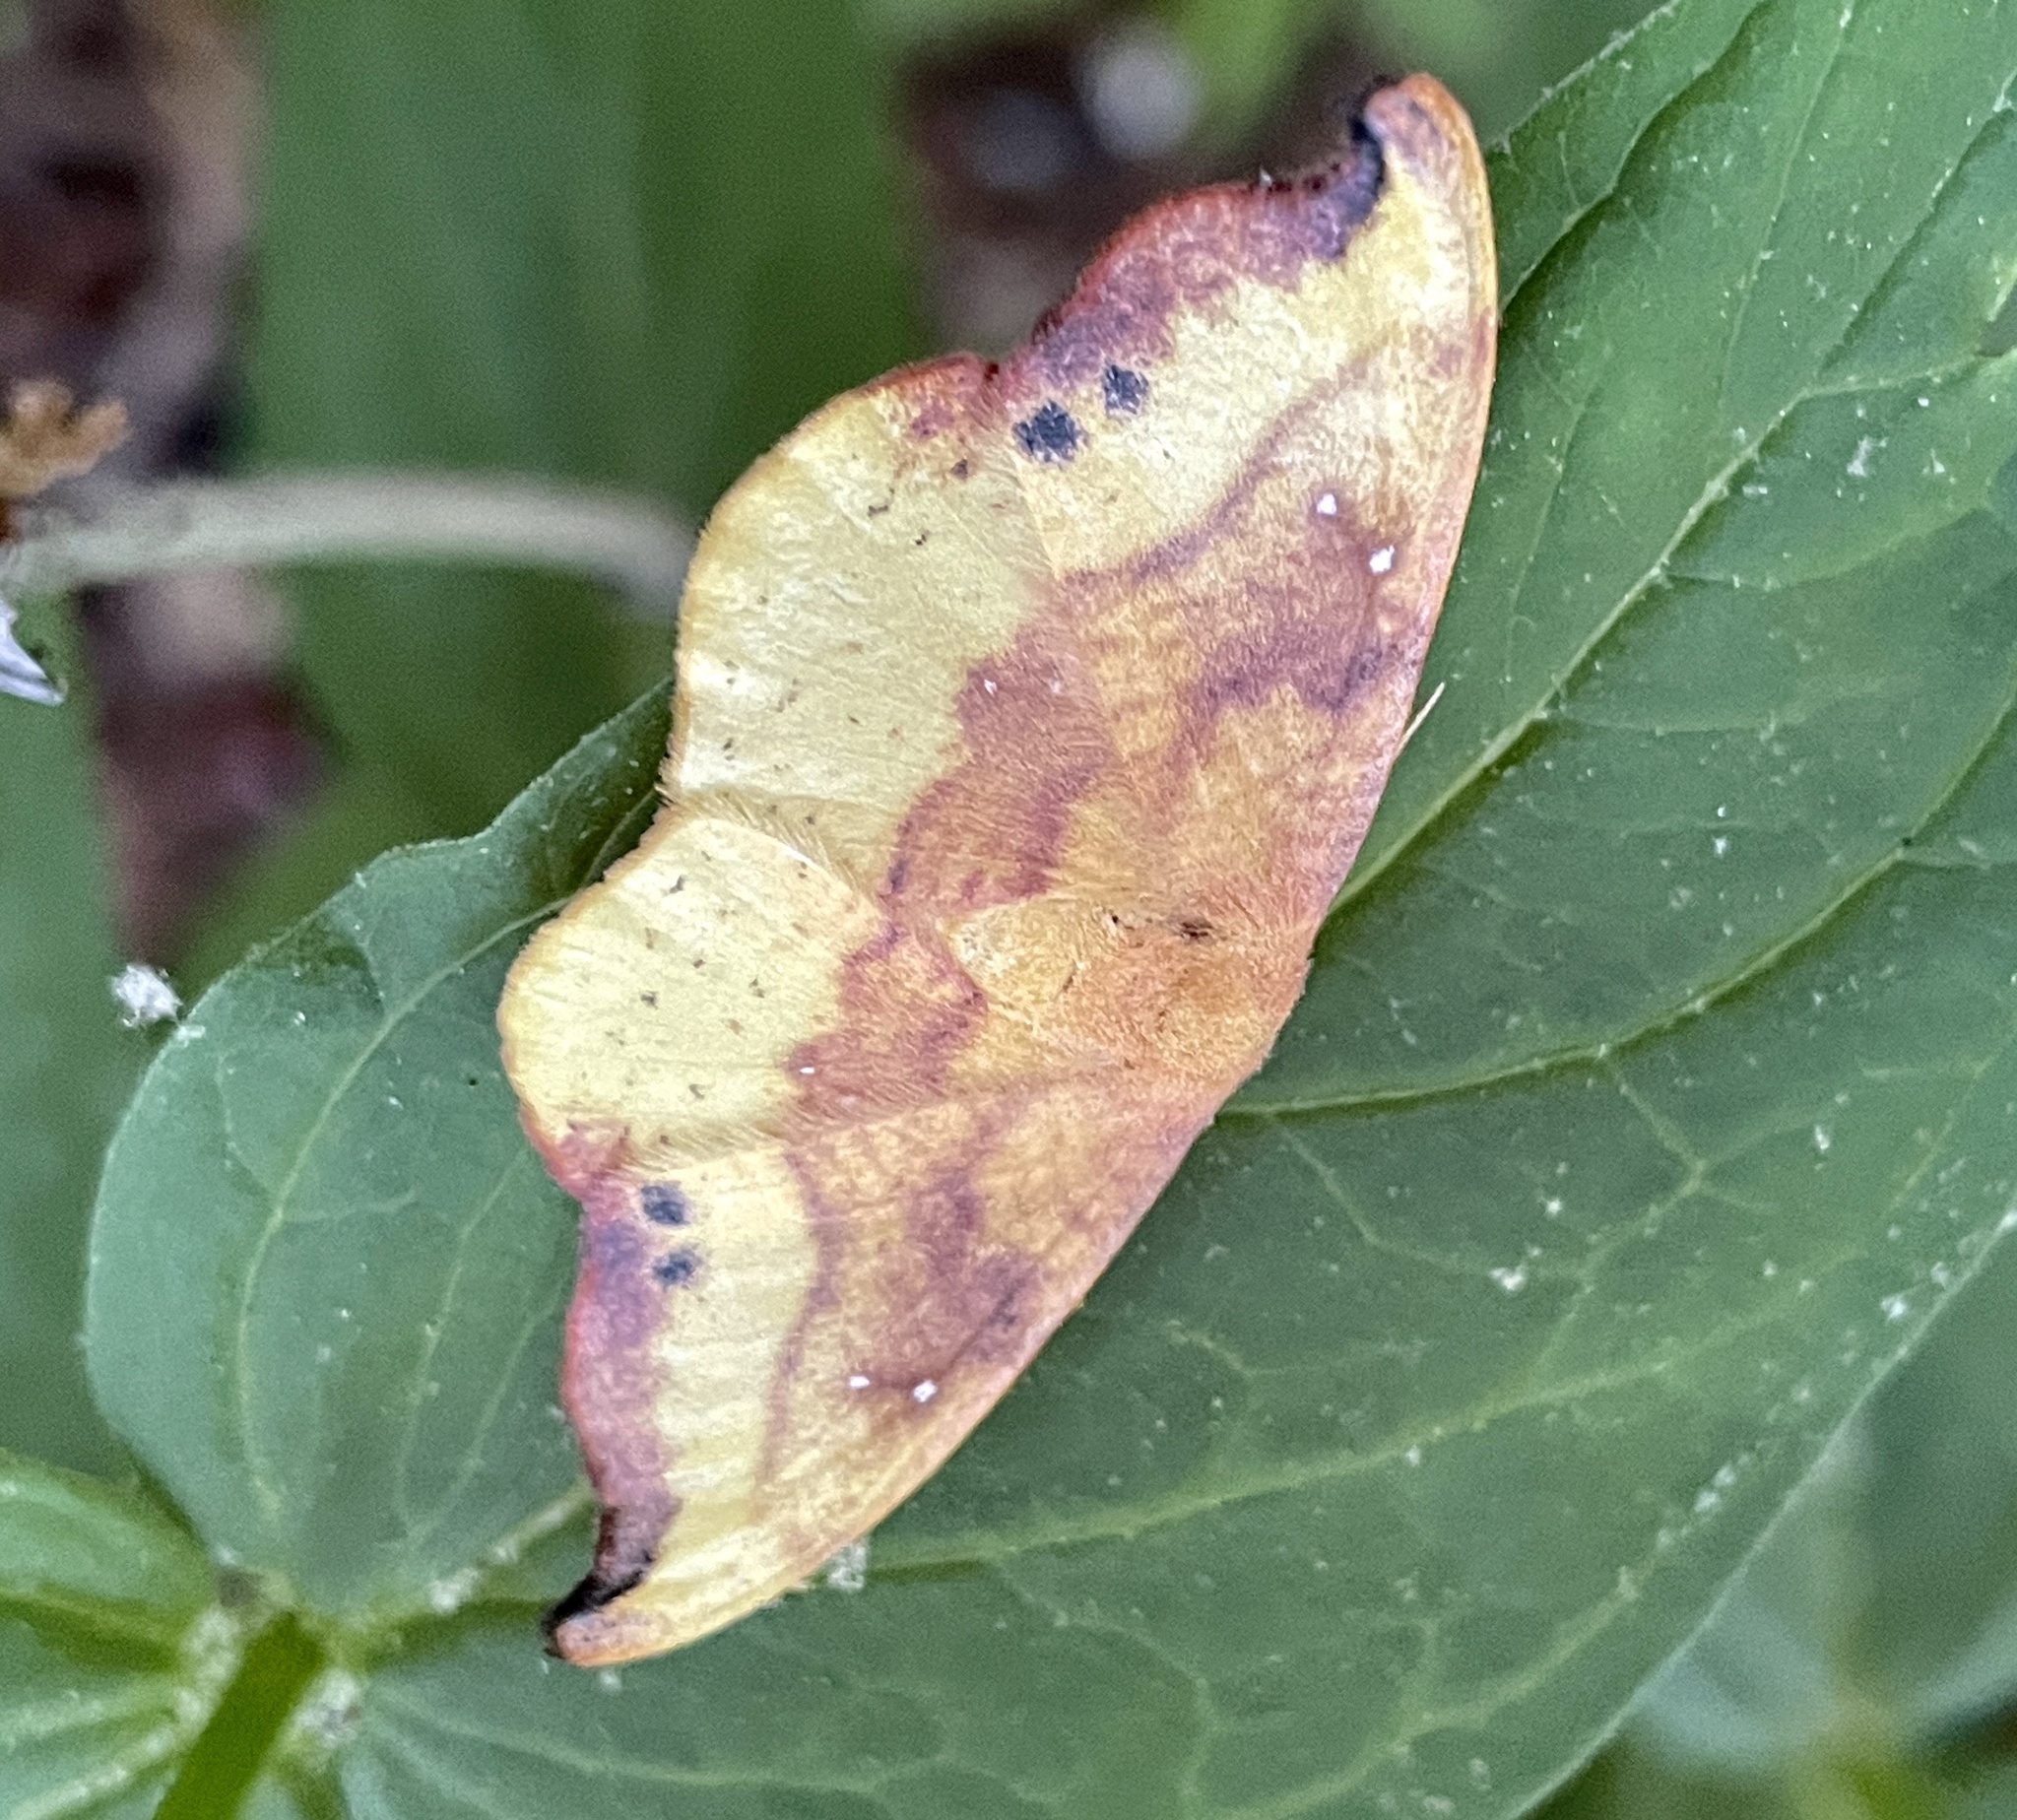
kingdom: Animalia
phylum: Arthropoda
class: Insecta
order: Lepidoptera
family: Drepanidae
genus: Oreta
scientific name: Oreta rosea
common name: Rose hooktip
